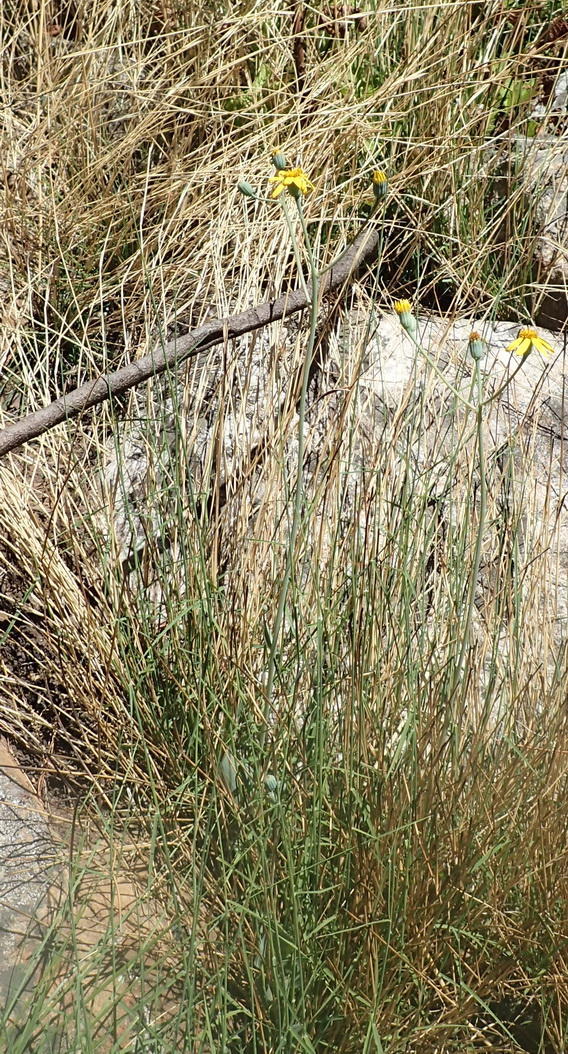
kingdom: Plantae
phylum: Tracheophyta
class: Magnoliopsida
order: Asterales
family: Asteraceae
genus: Senecio
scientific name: Senecio ruwenzoriensis
